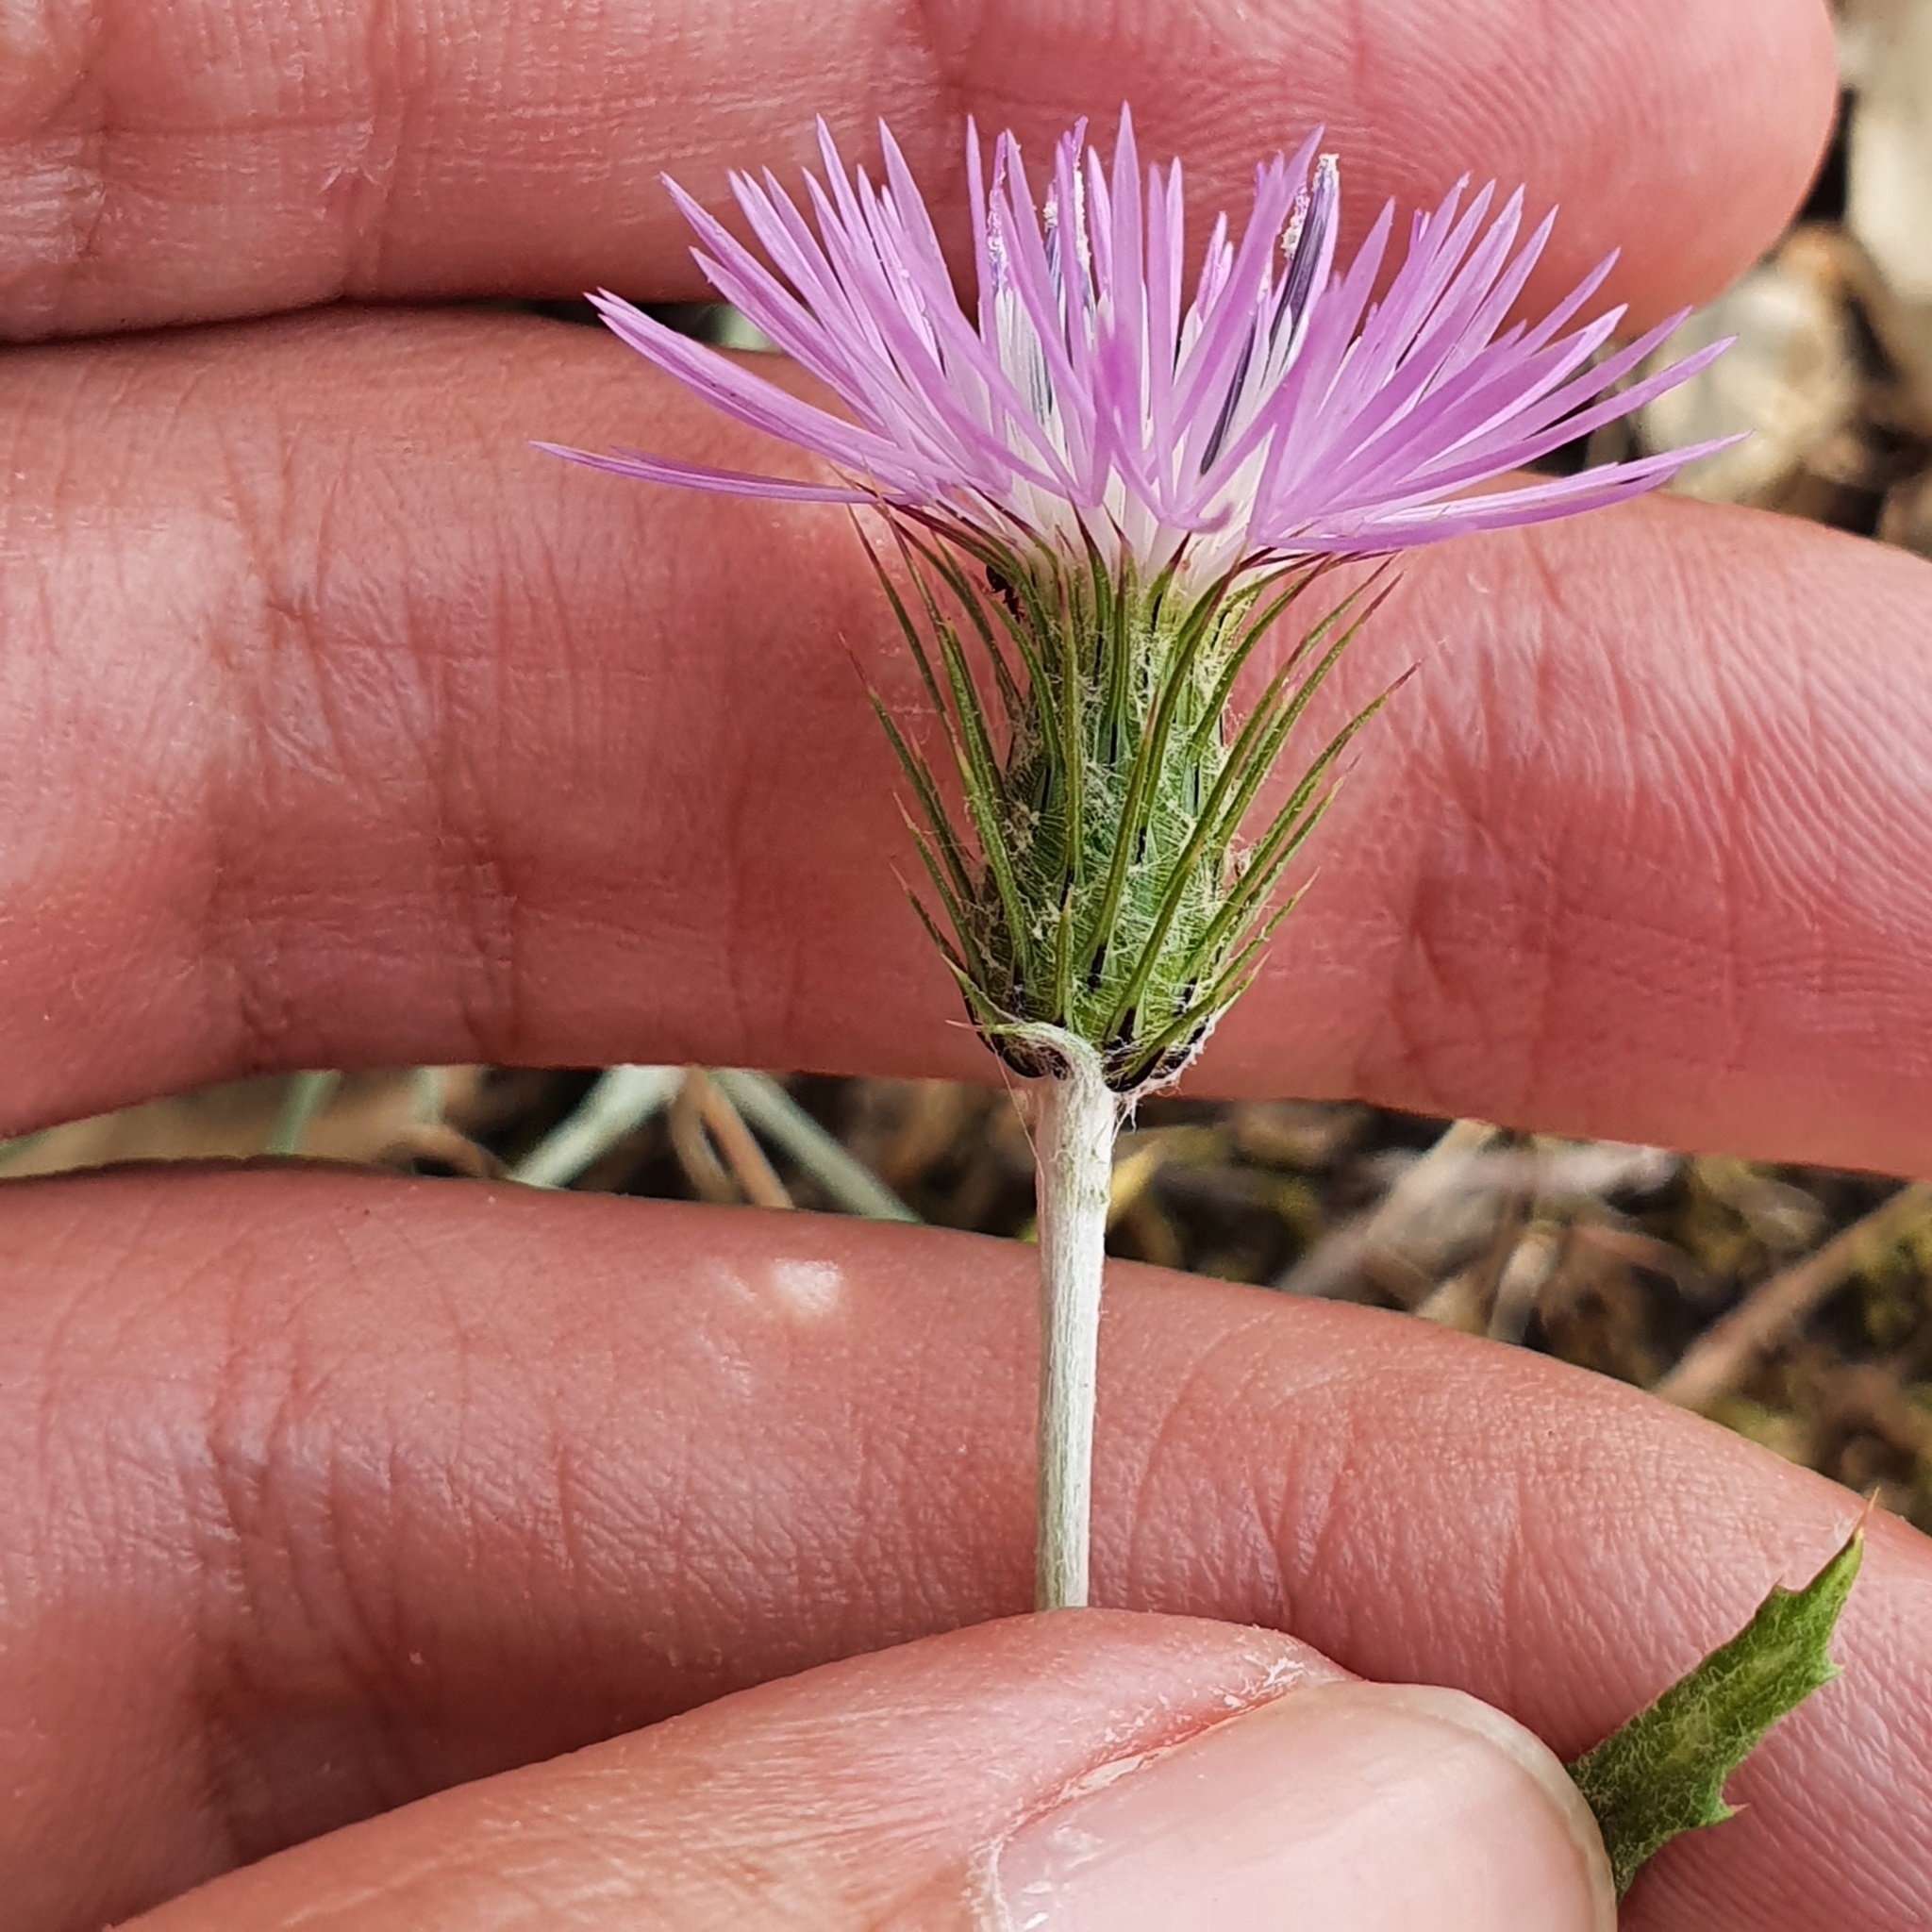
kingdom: Plantae
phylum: Tracheophyta
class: Magnoliopsida
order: Asterales
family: Asteraceae
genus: Galactites
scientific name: Galactites tomentosa
